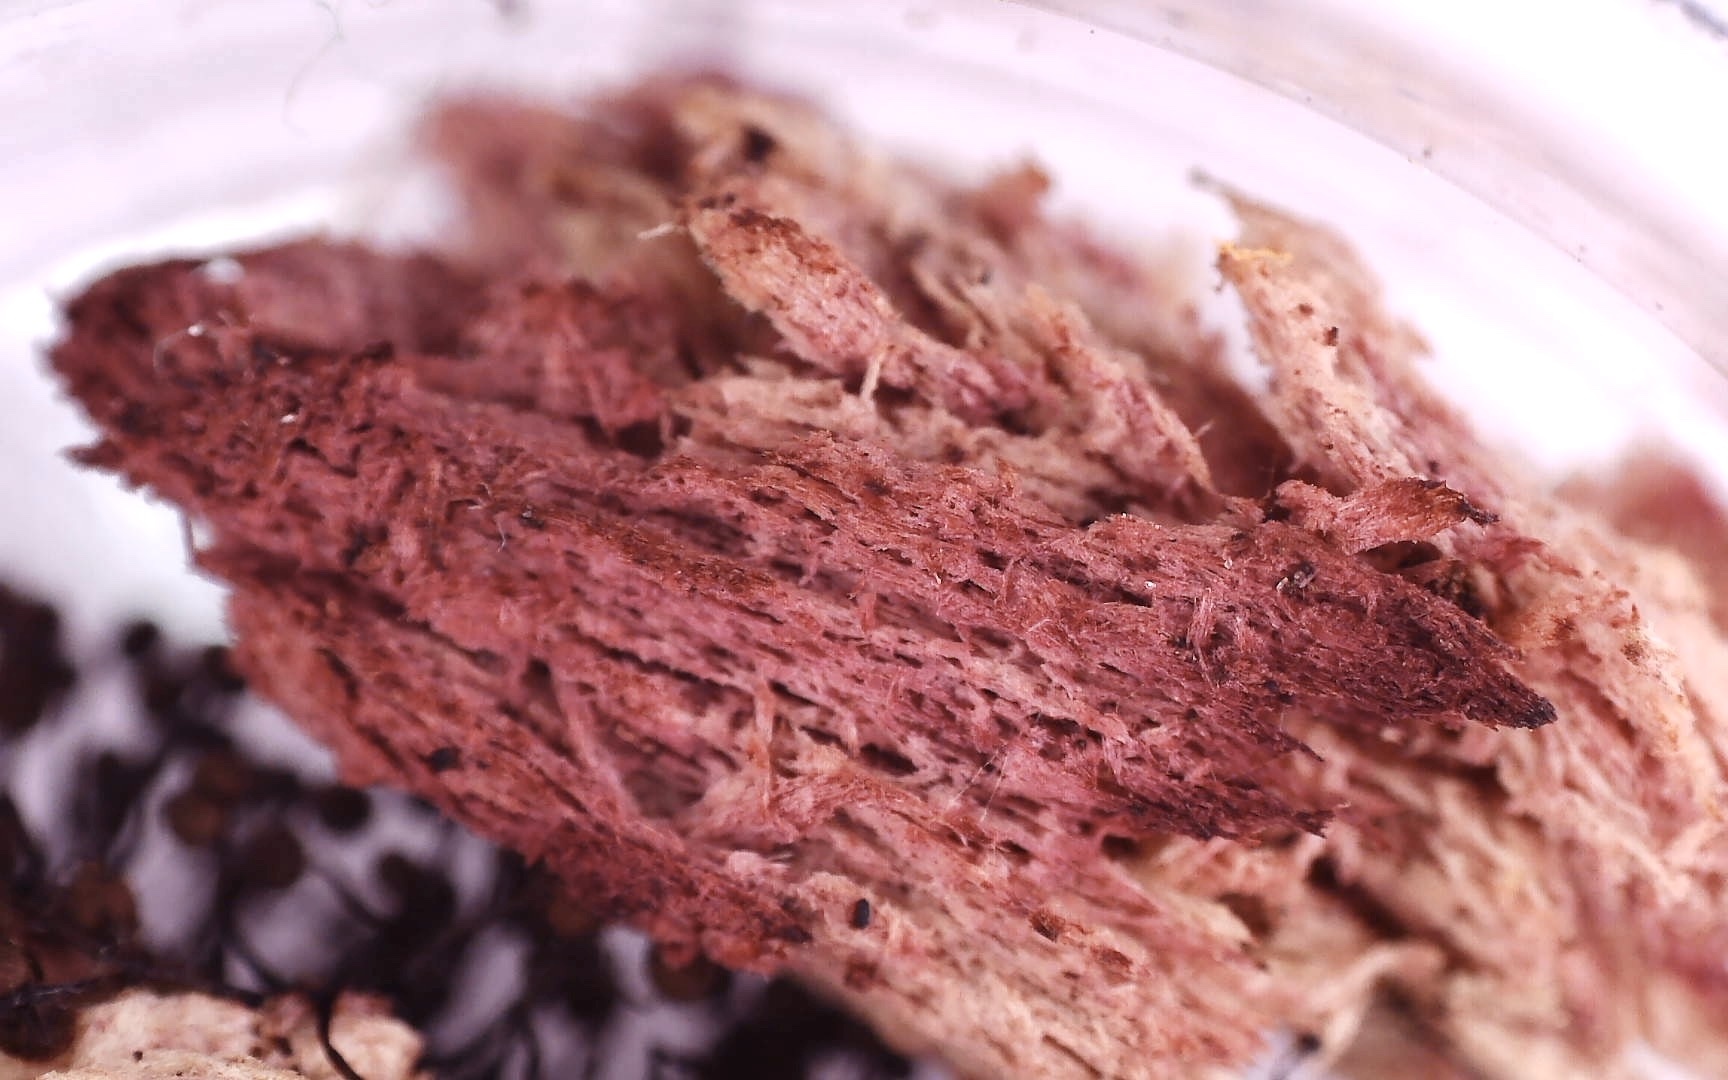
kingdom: Protozoa
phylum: Mycetozoa
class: Myxomycetes
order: Cribrariales
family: Cribrariaceae
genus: Cribraria
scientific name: Cribraria cancellata
